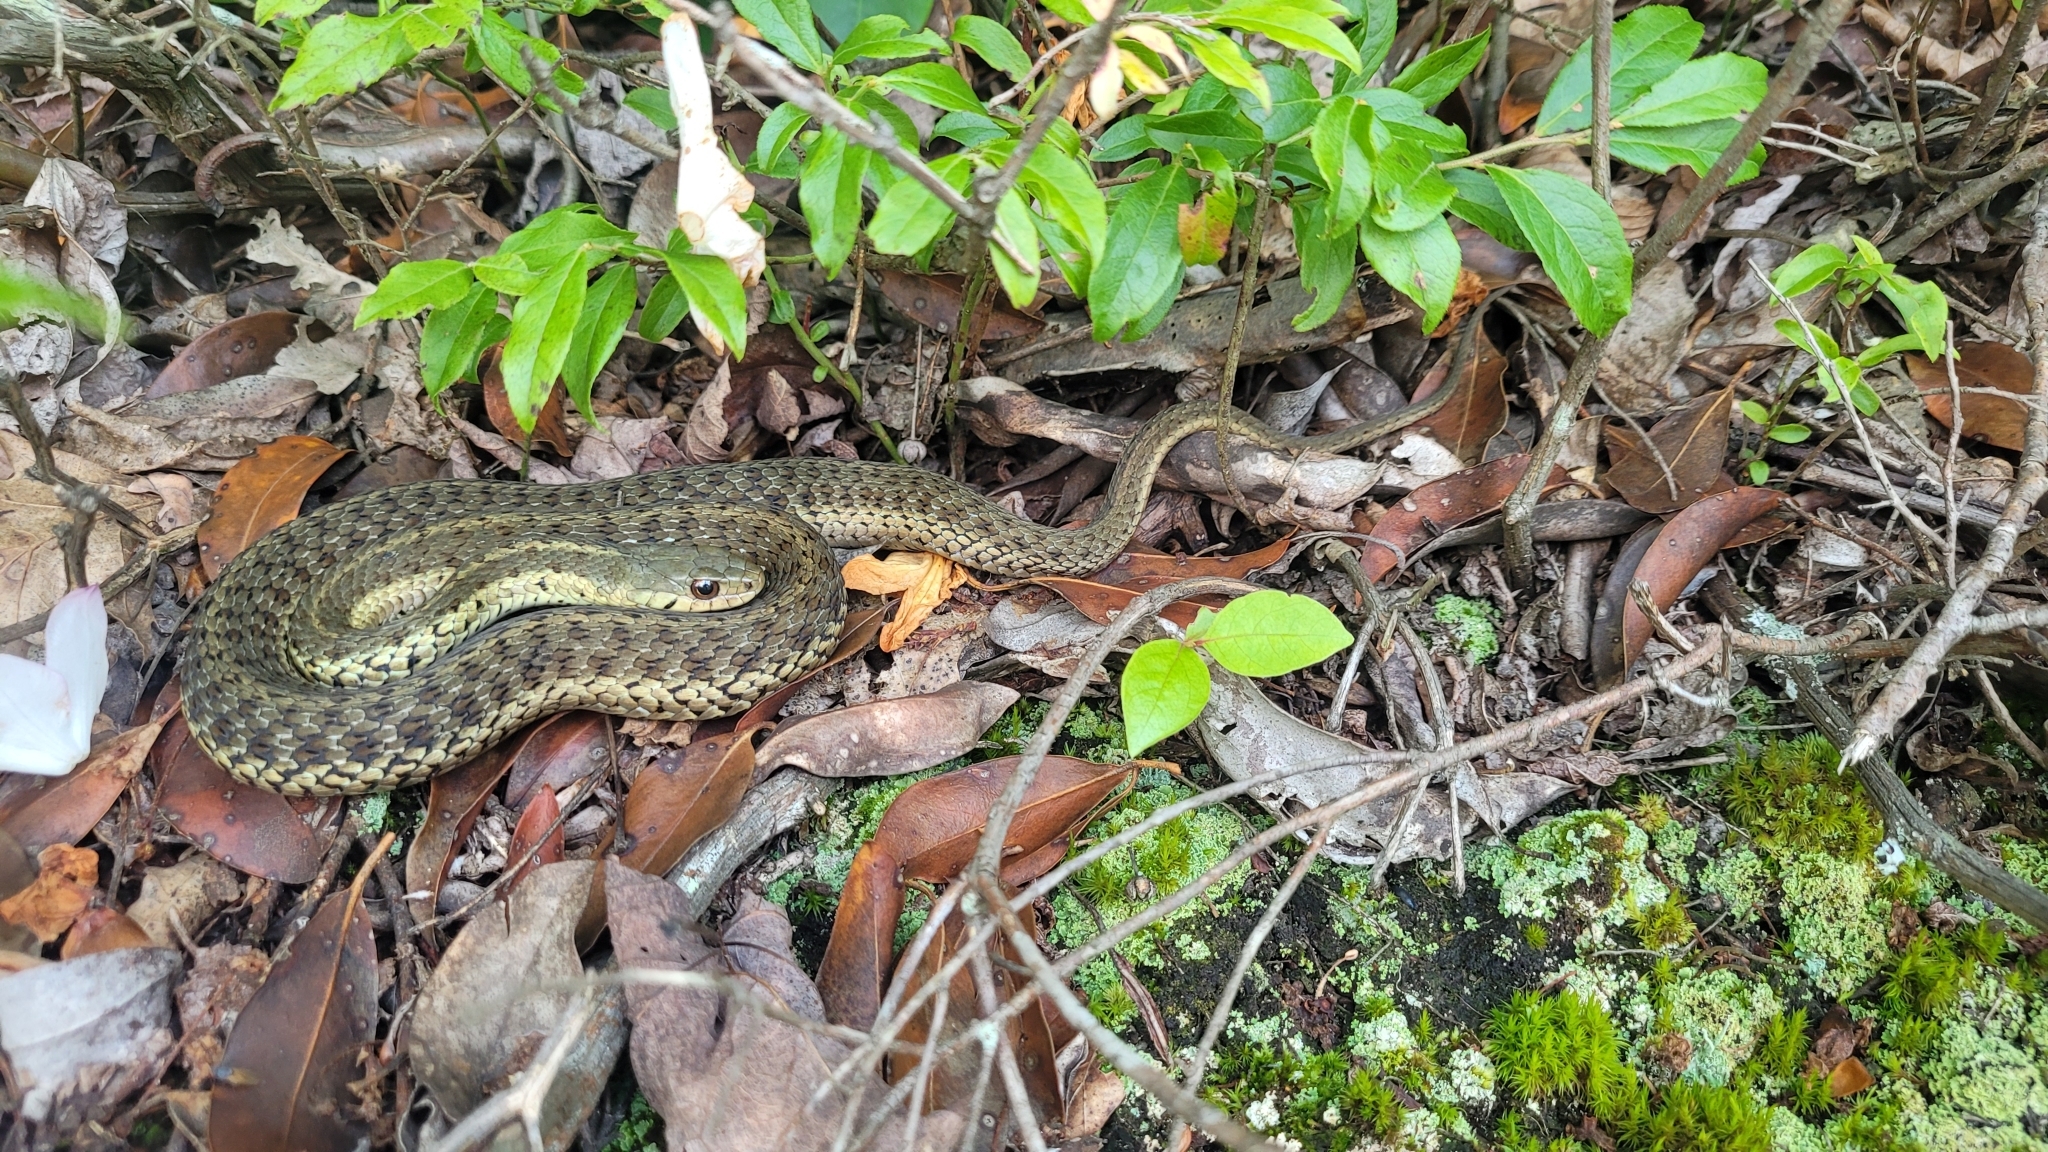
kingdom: Animalia
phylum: Chordata
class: Squamata
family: Colubridae
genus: Thamnophis
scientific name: Thamnophis sirtalis
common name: Common garter snake
